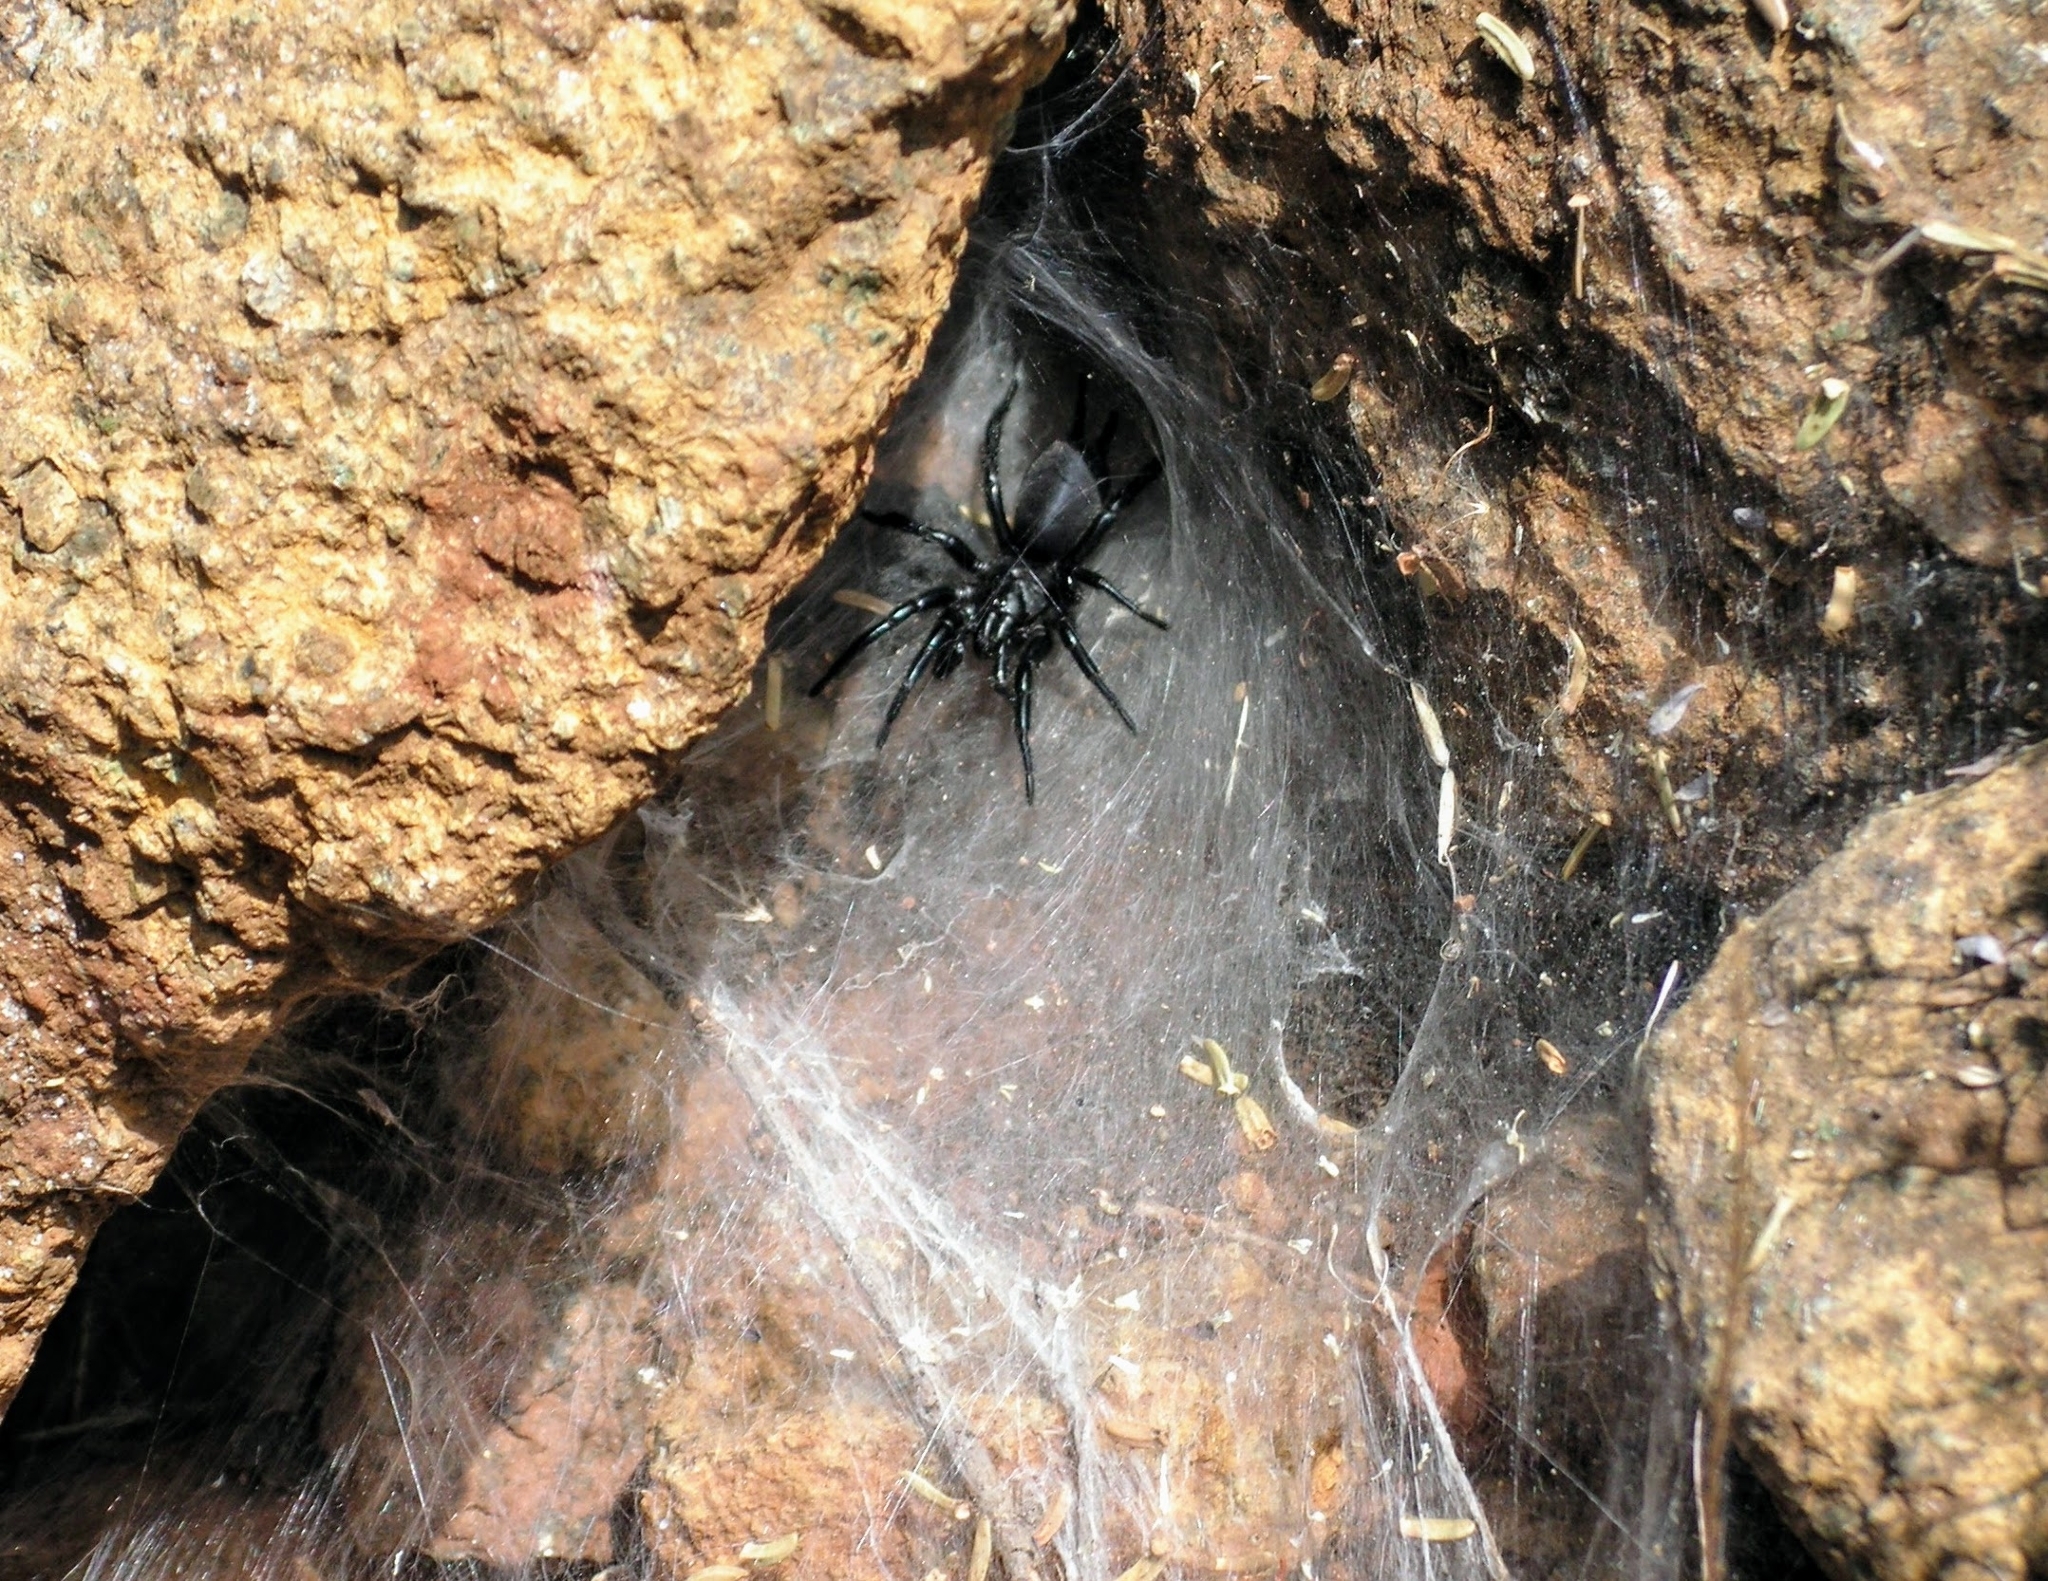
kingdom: Animalia
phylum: Arthropoda
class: Arachnida
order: Araneae
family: Macrothelidae
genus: Macrothele
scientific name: Macrothele calpeiana
